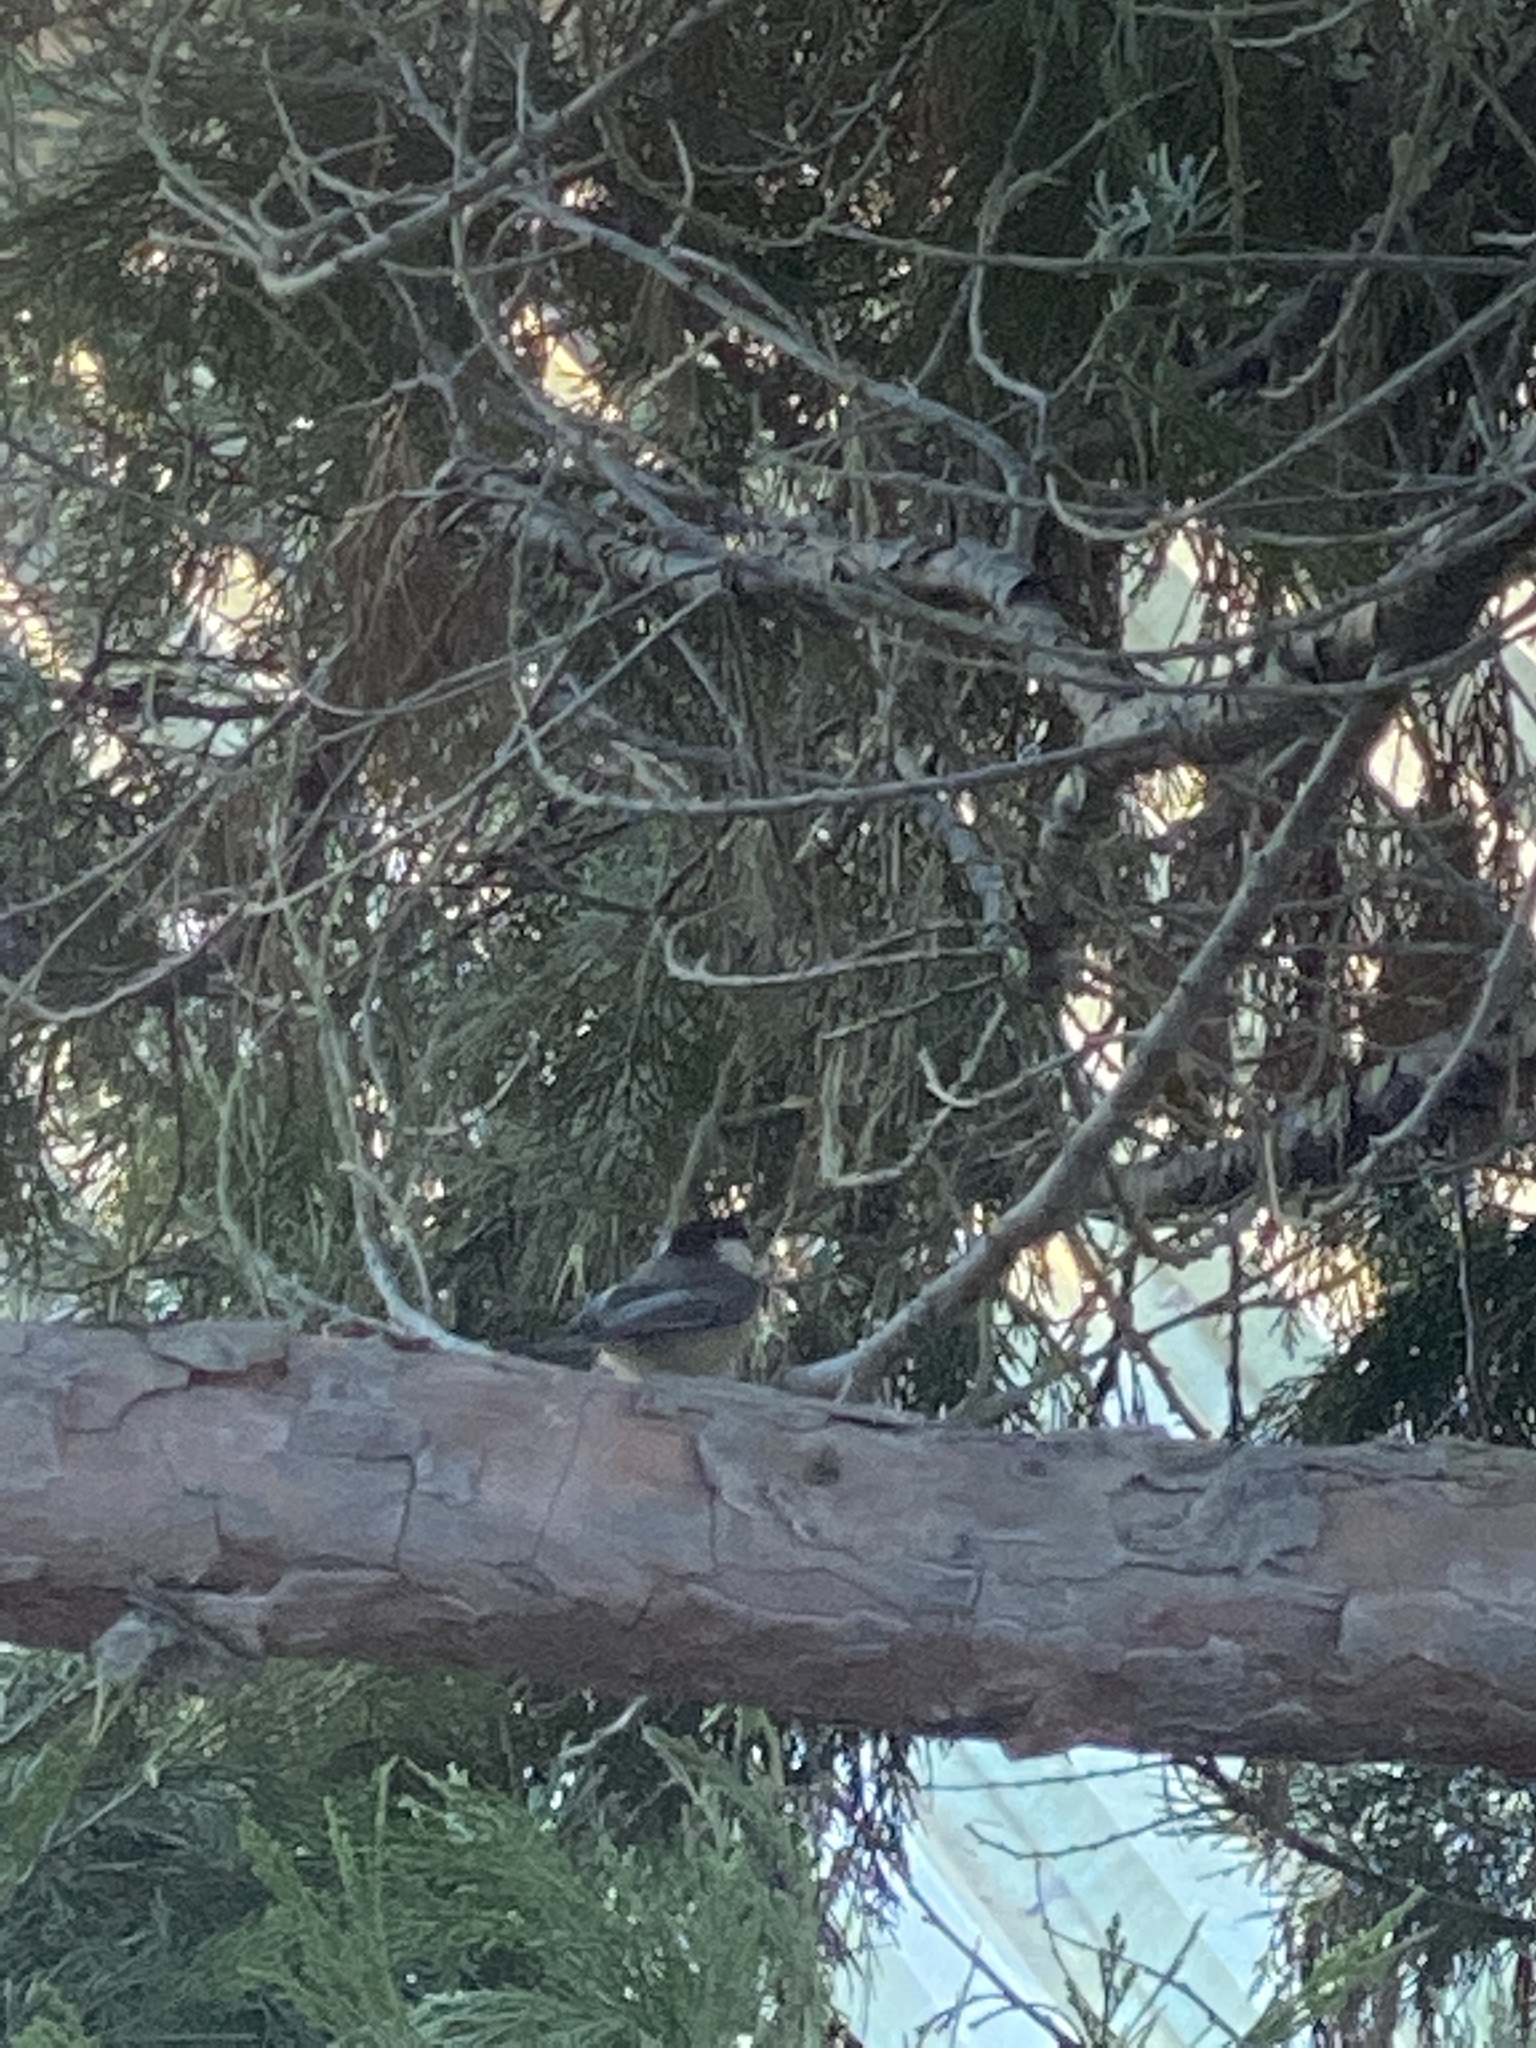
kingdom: Animalia
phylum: Chordata
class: Aves
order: Passeriformes
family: Paridae
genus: Poecile
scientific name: Poecile atricapillus
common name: Black-capped chickadee
